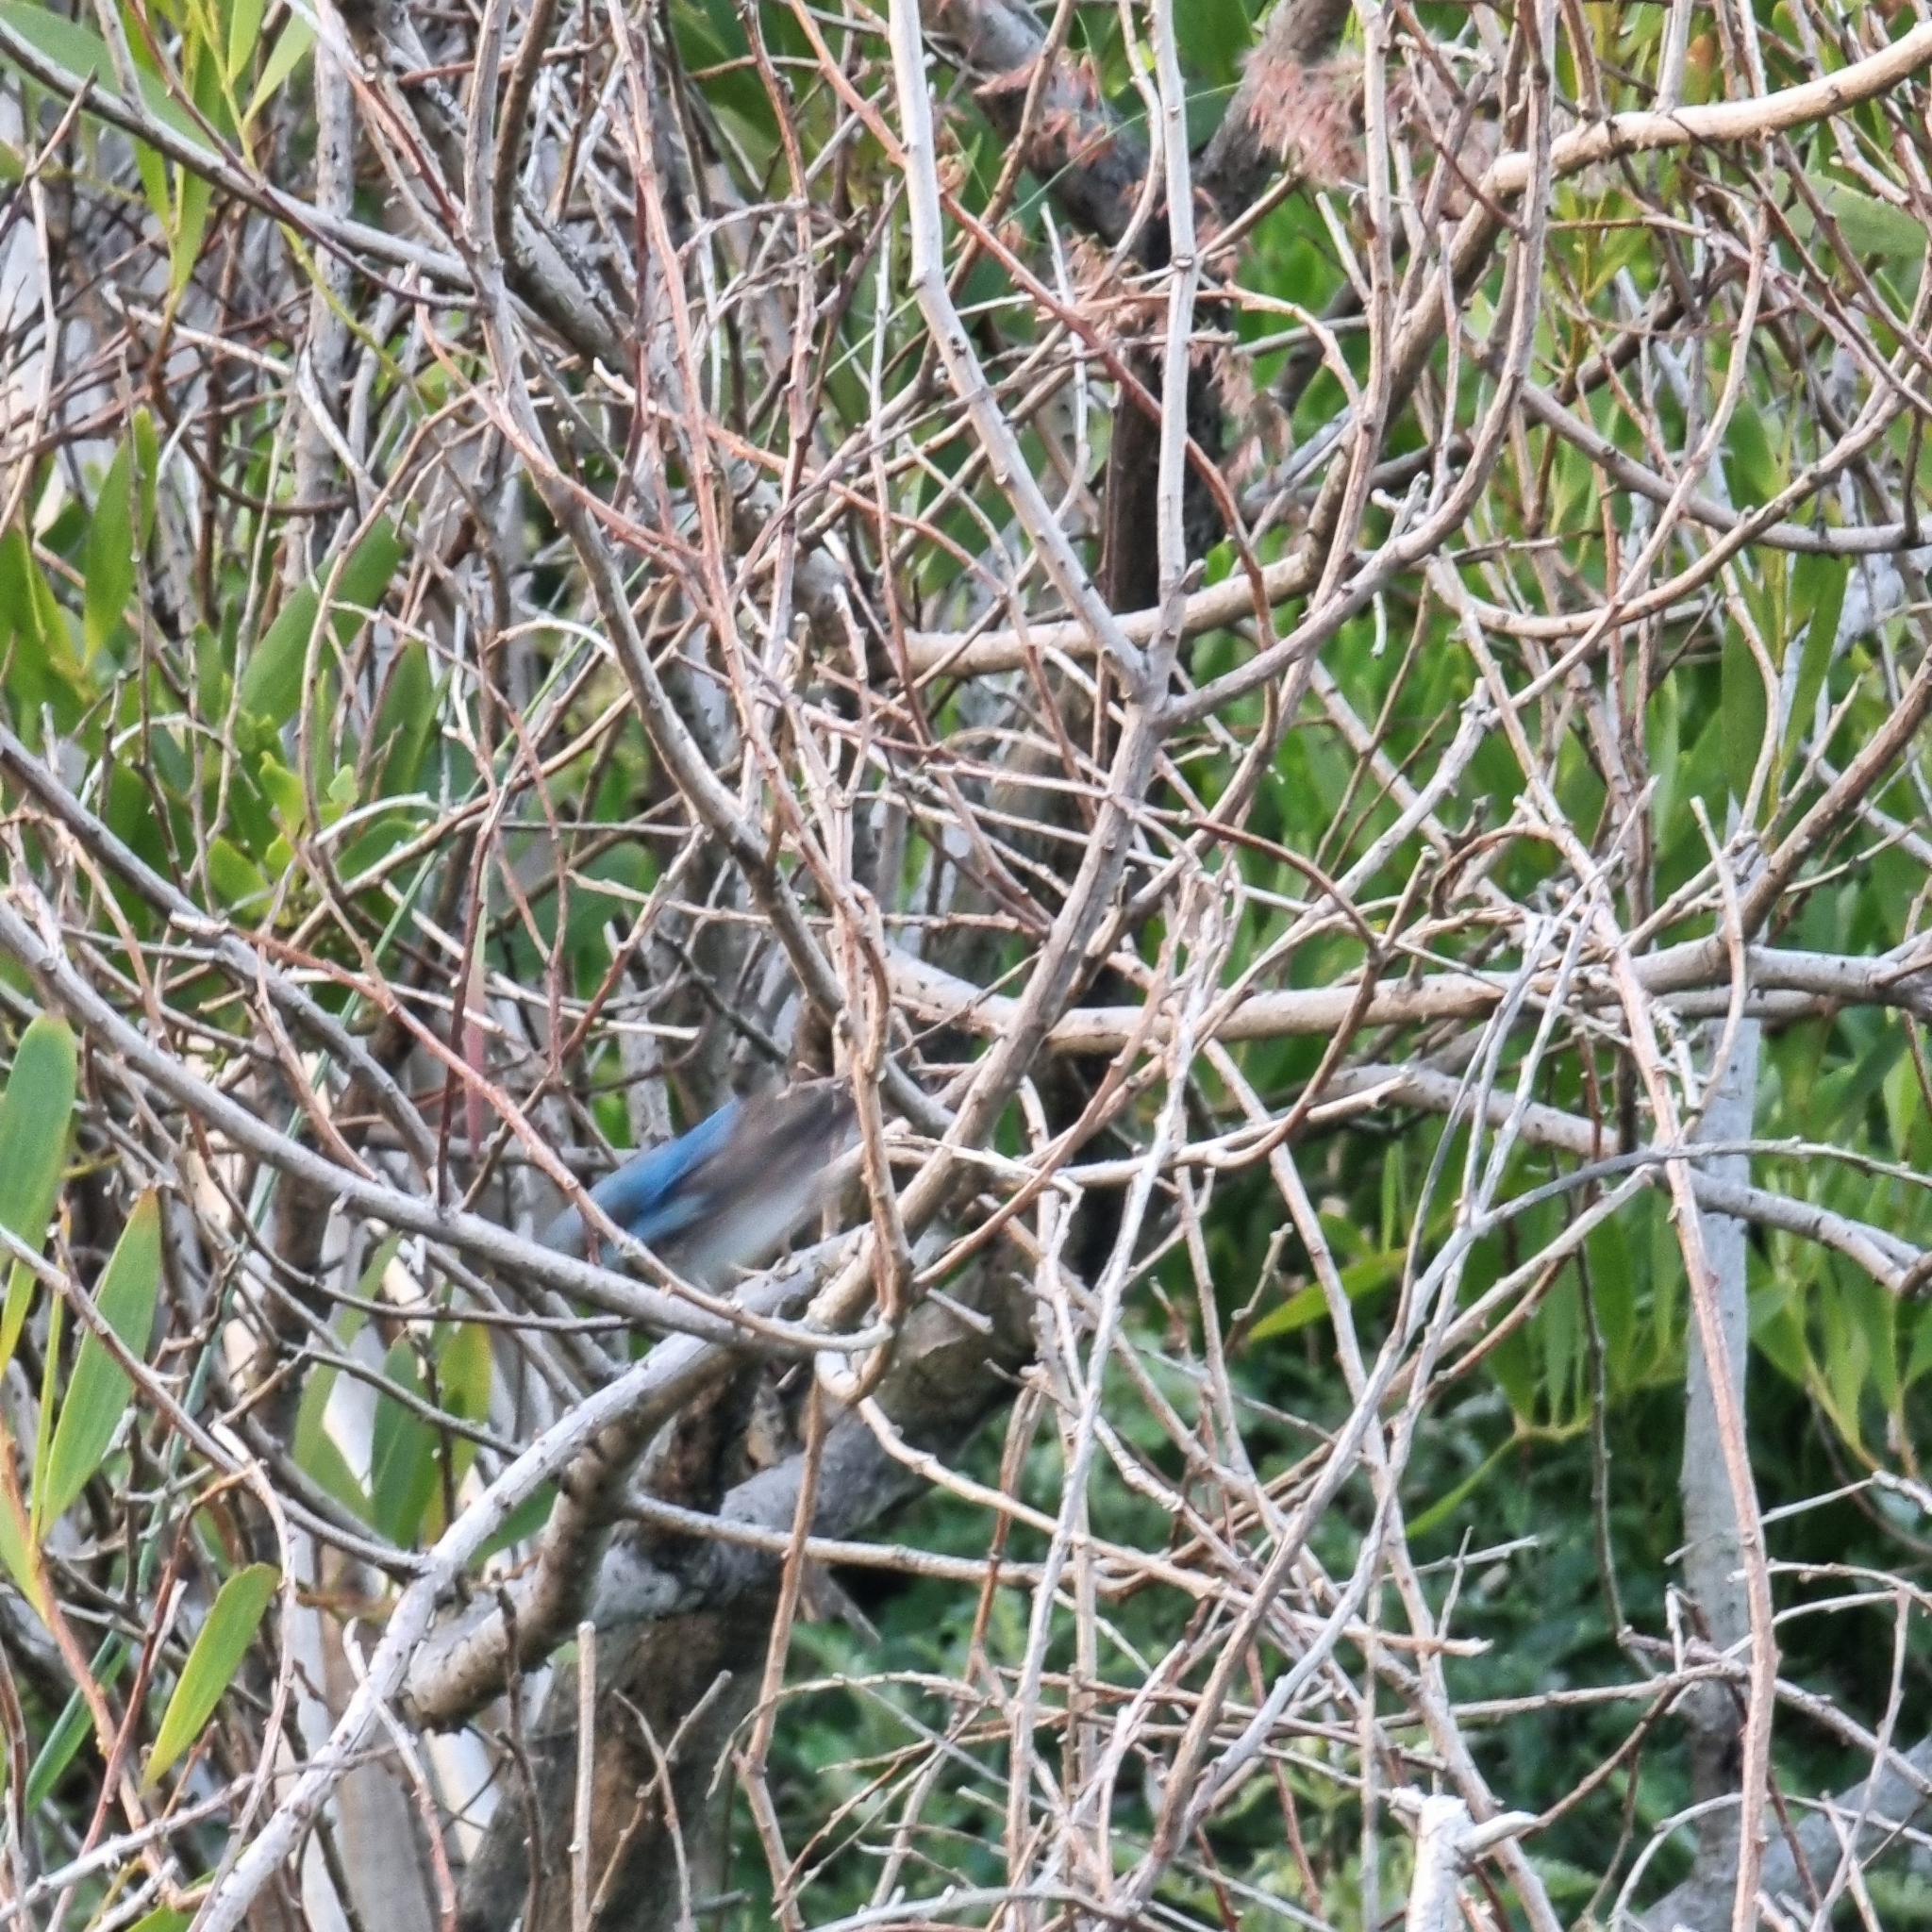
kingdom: Animalia
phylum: Chordata
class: Aves
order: Passeriformes
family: Maluridae
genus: Malurus
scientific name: Malurus cyaneus
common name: Superb fairywren
